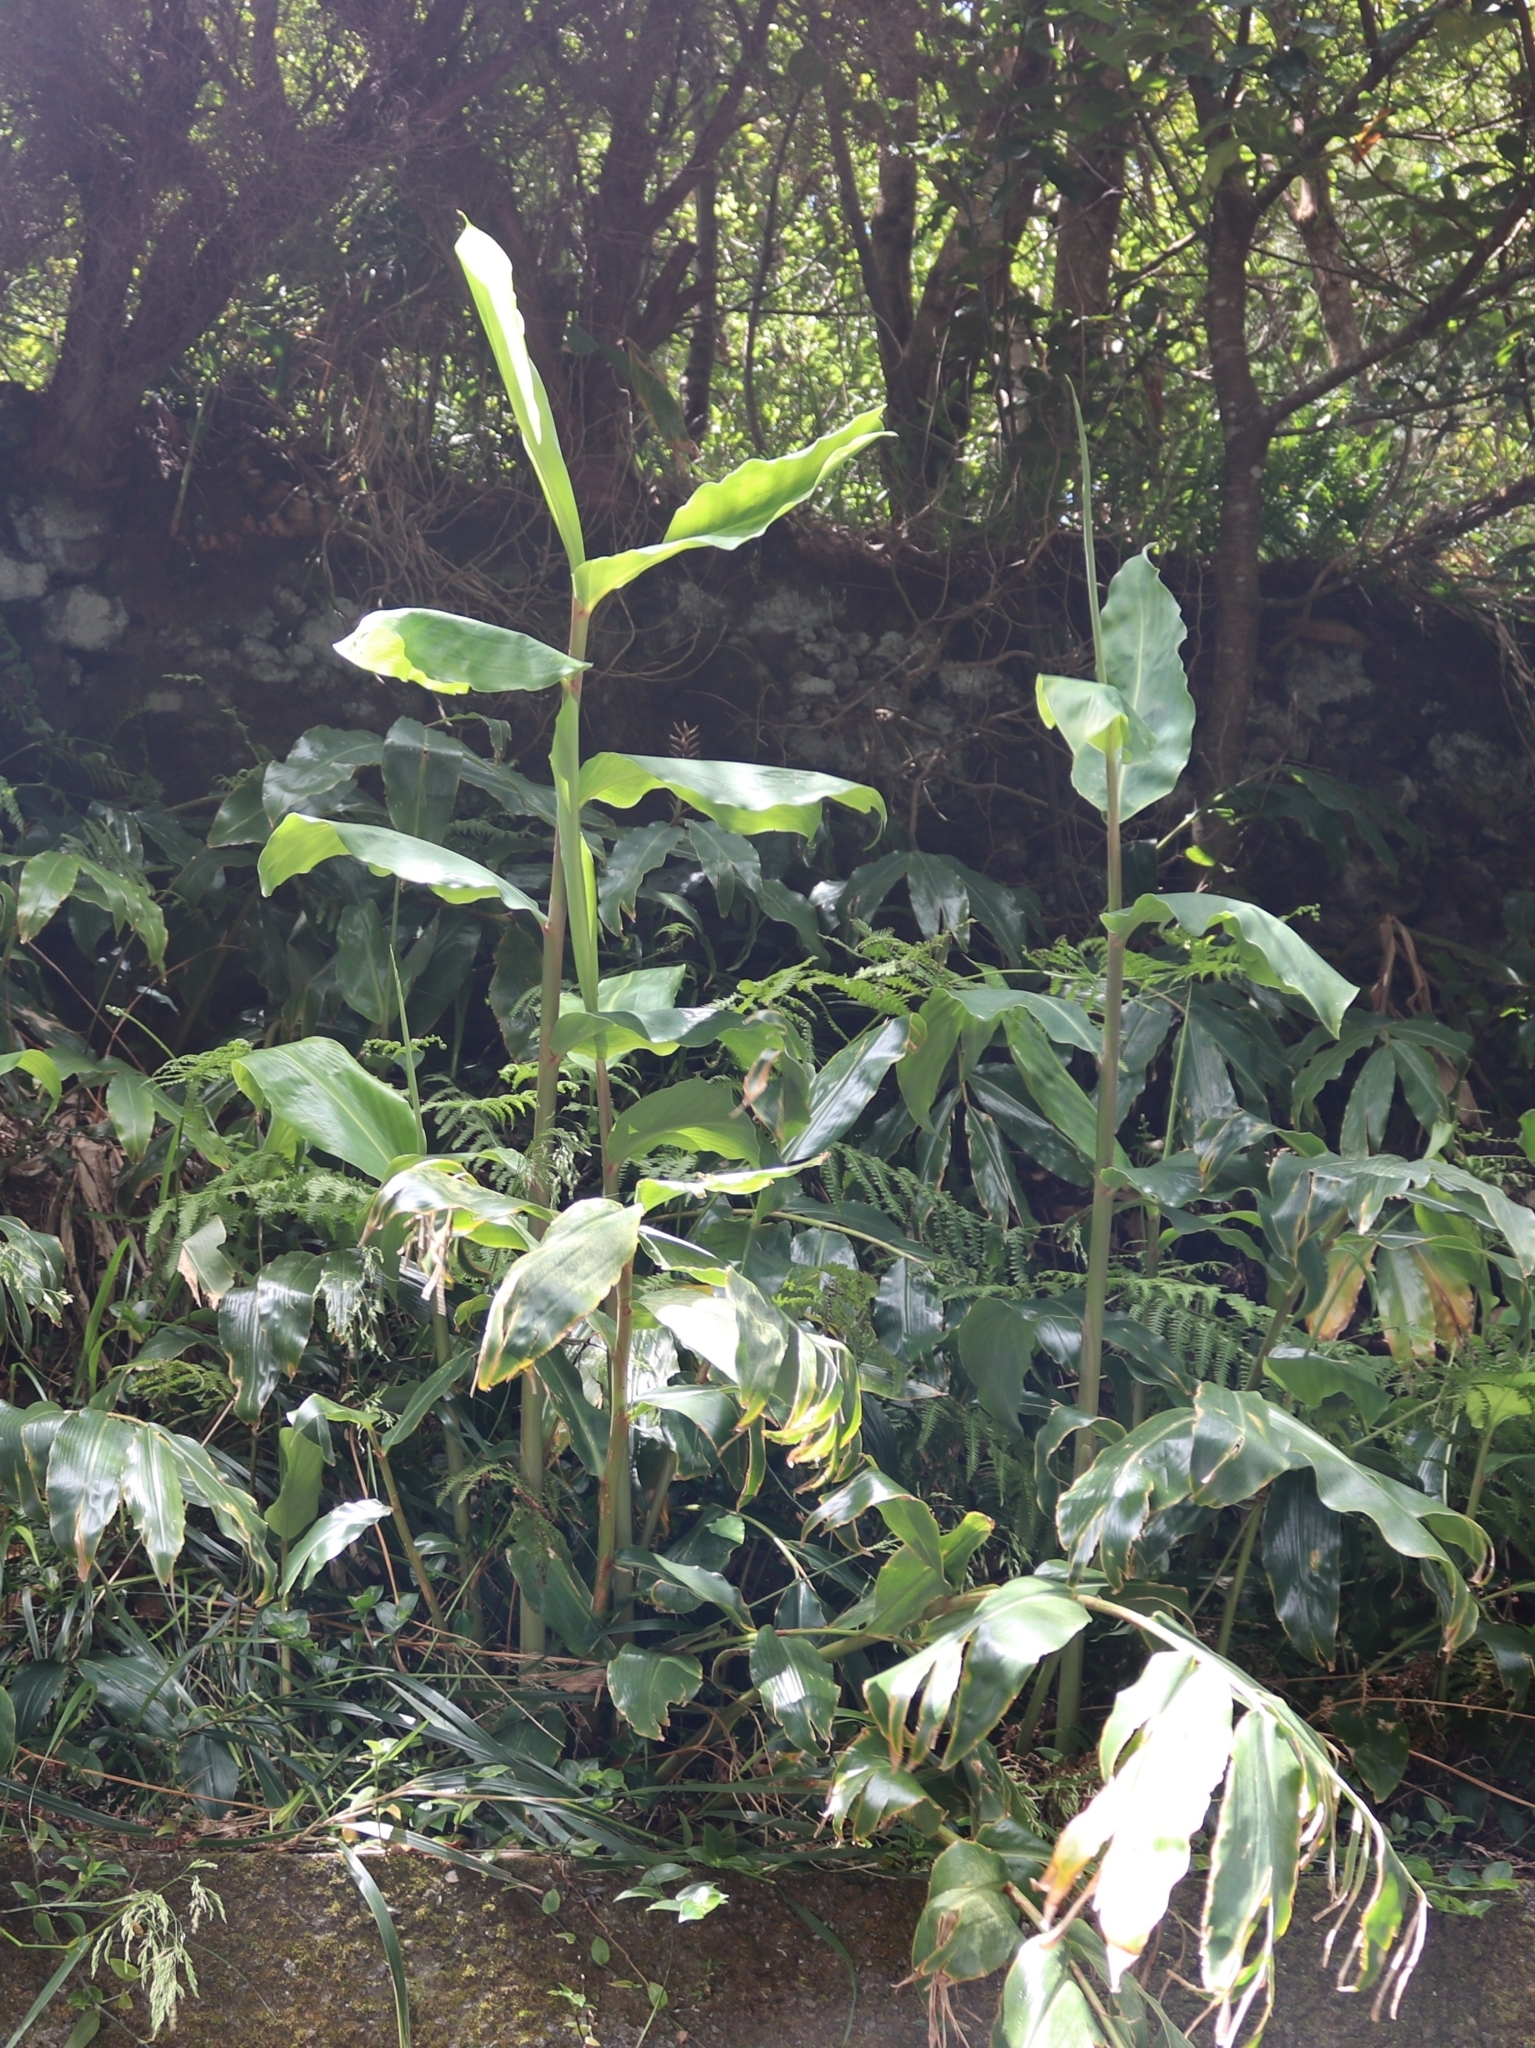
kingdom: Plantae
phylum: Tracheophyta
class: Liliopsida
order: Zingiberales
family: Zingiberaceae
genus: Hedychium
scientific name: Hedychium gardnerianum
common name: Himalayan ginger
